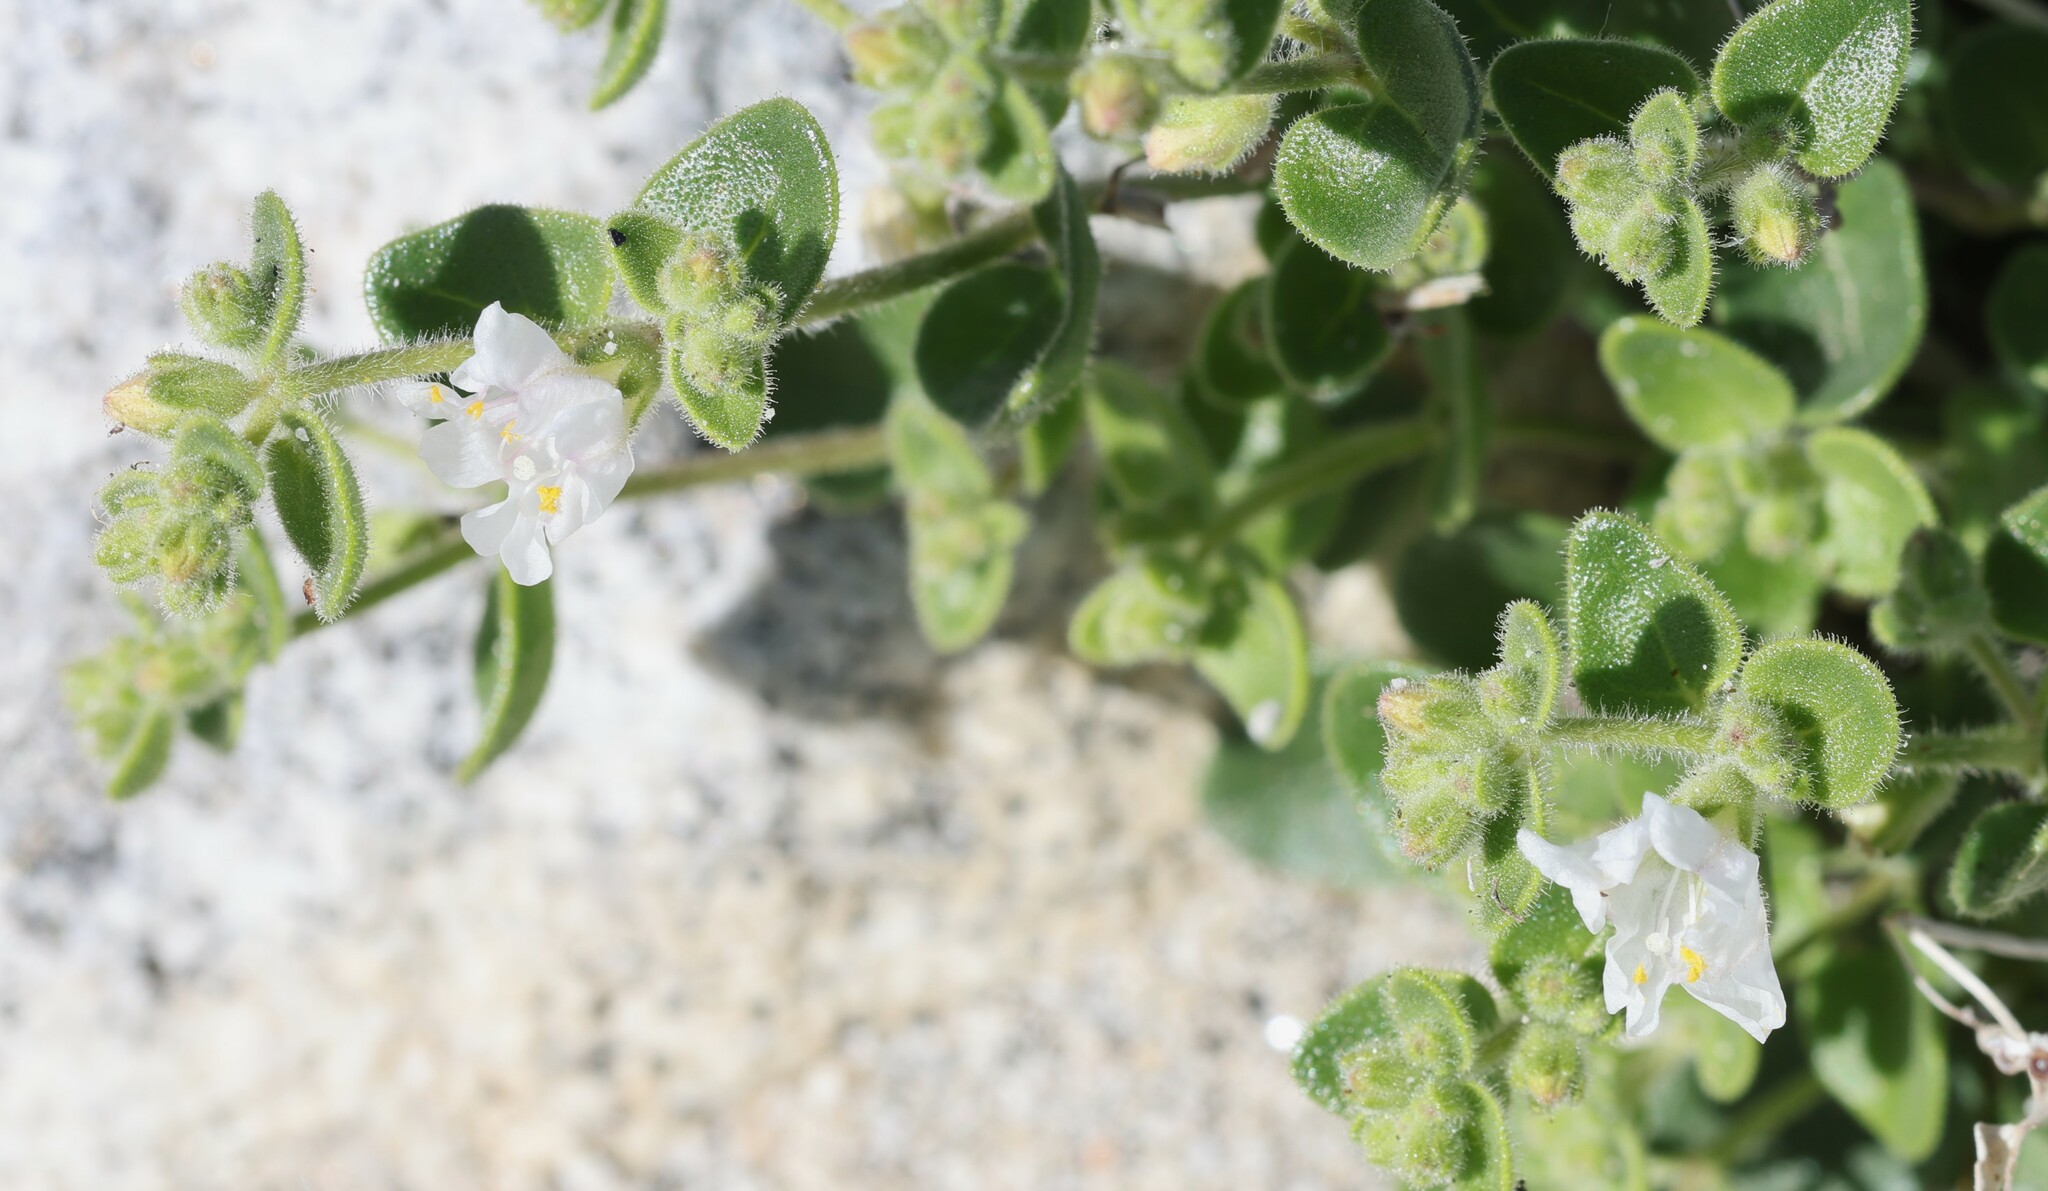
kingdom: Plantae
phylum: Tracheophyta
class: Magnoliopsida
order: Caryophyllales
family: Nyctaginaceae
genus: Mirabilis
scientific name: Mirabilis laevis
